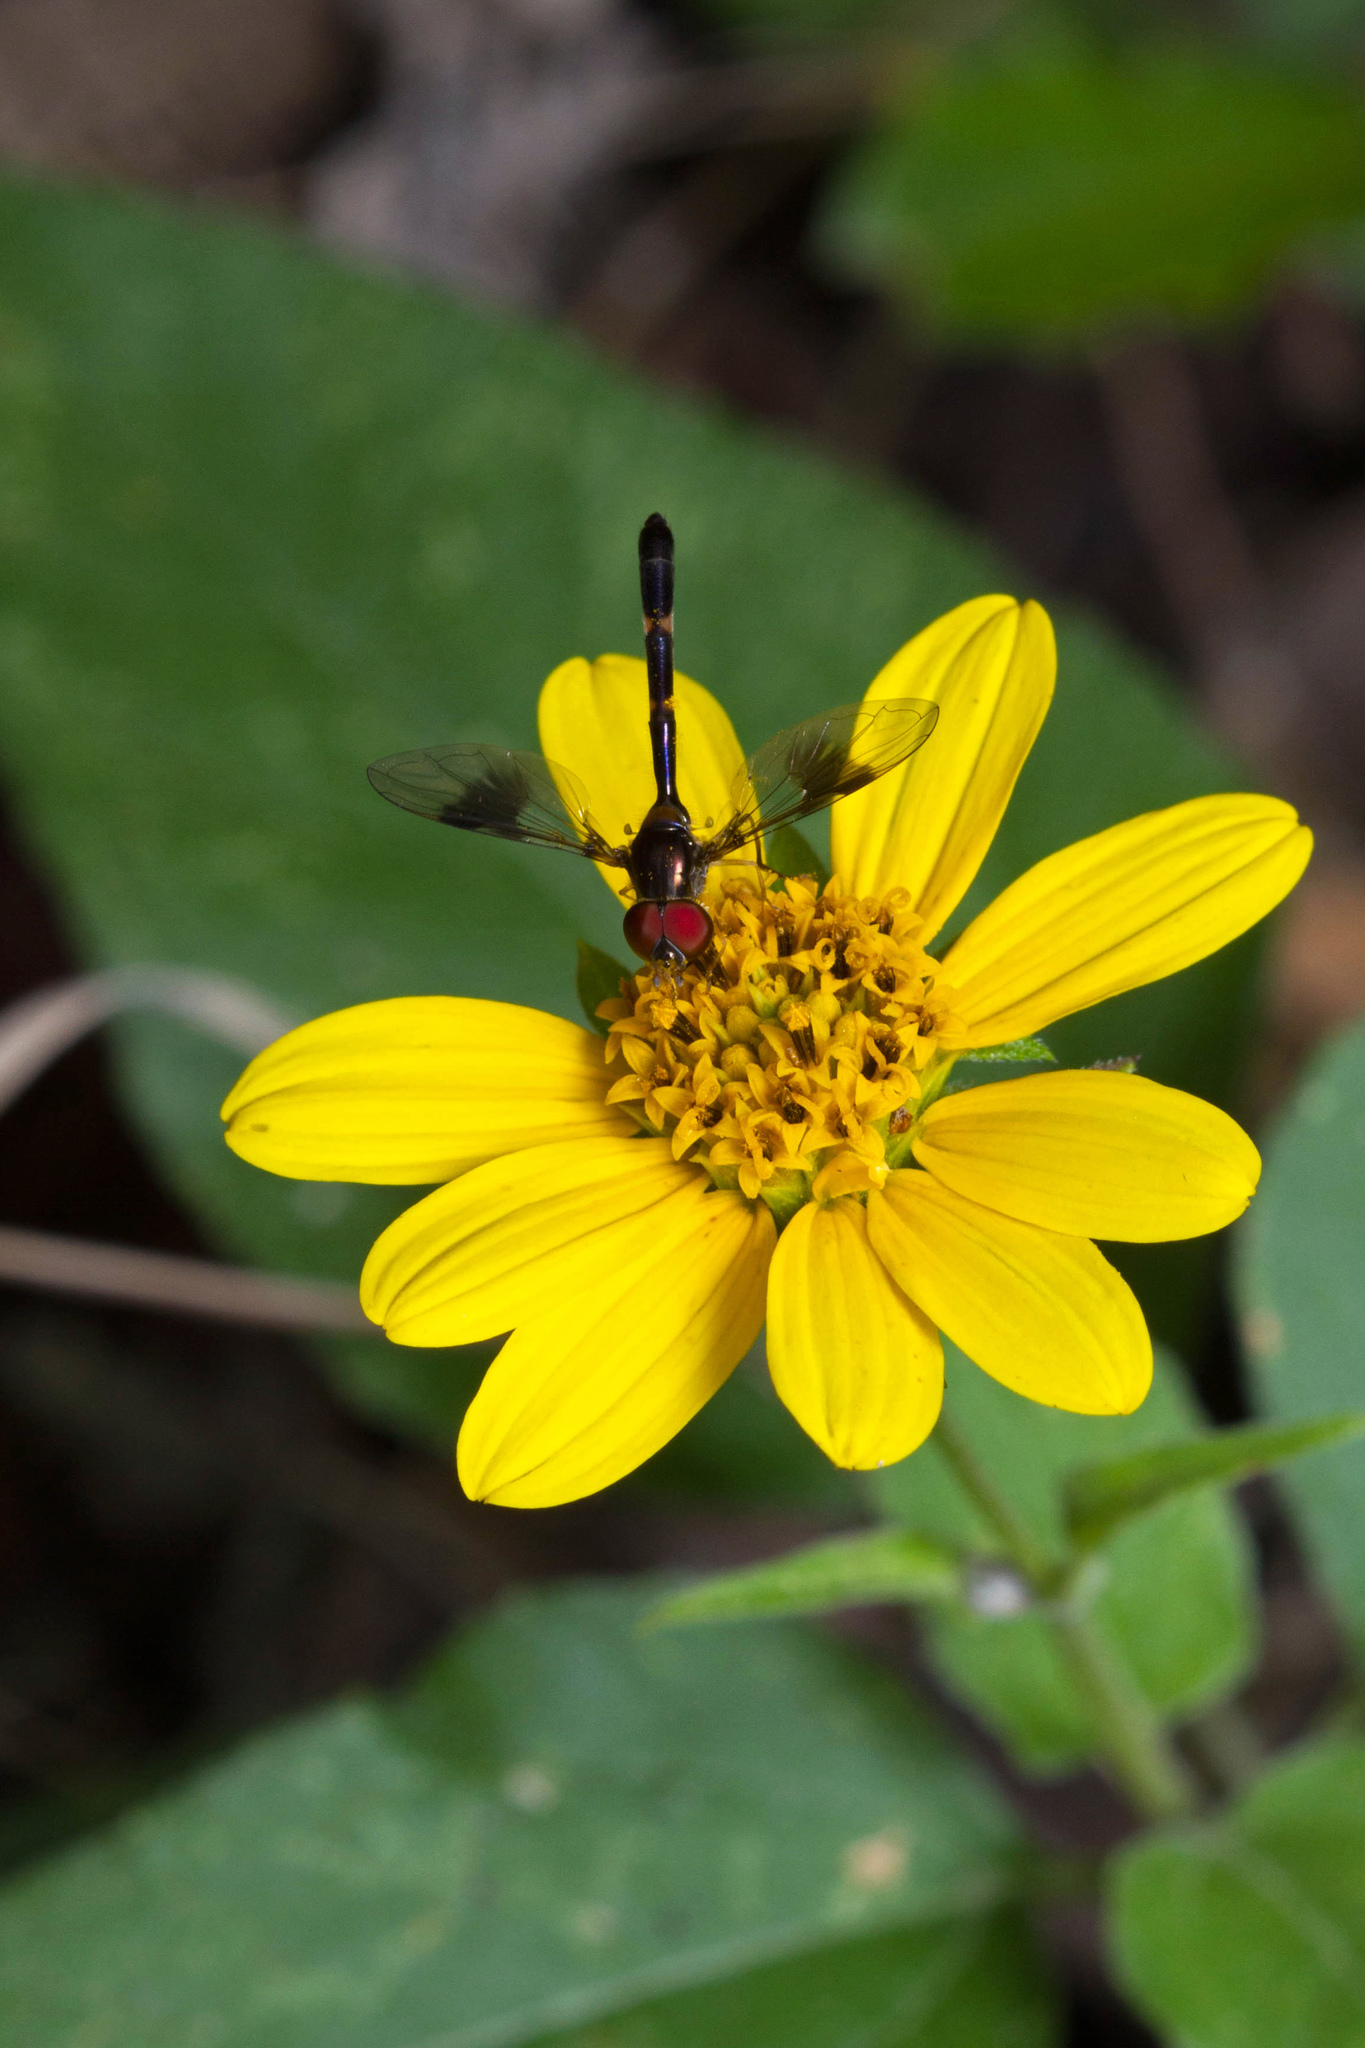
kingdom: Animalia
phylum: Arthropoda
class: Insecta
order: Diptera
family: Syrphidae
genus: Hypocritanus
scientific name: Hypocritanus fascipennis
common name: Eastern band-winged hover fly
